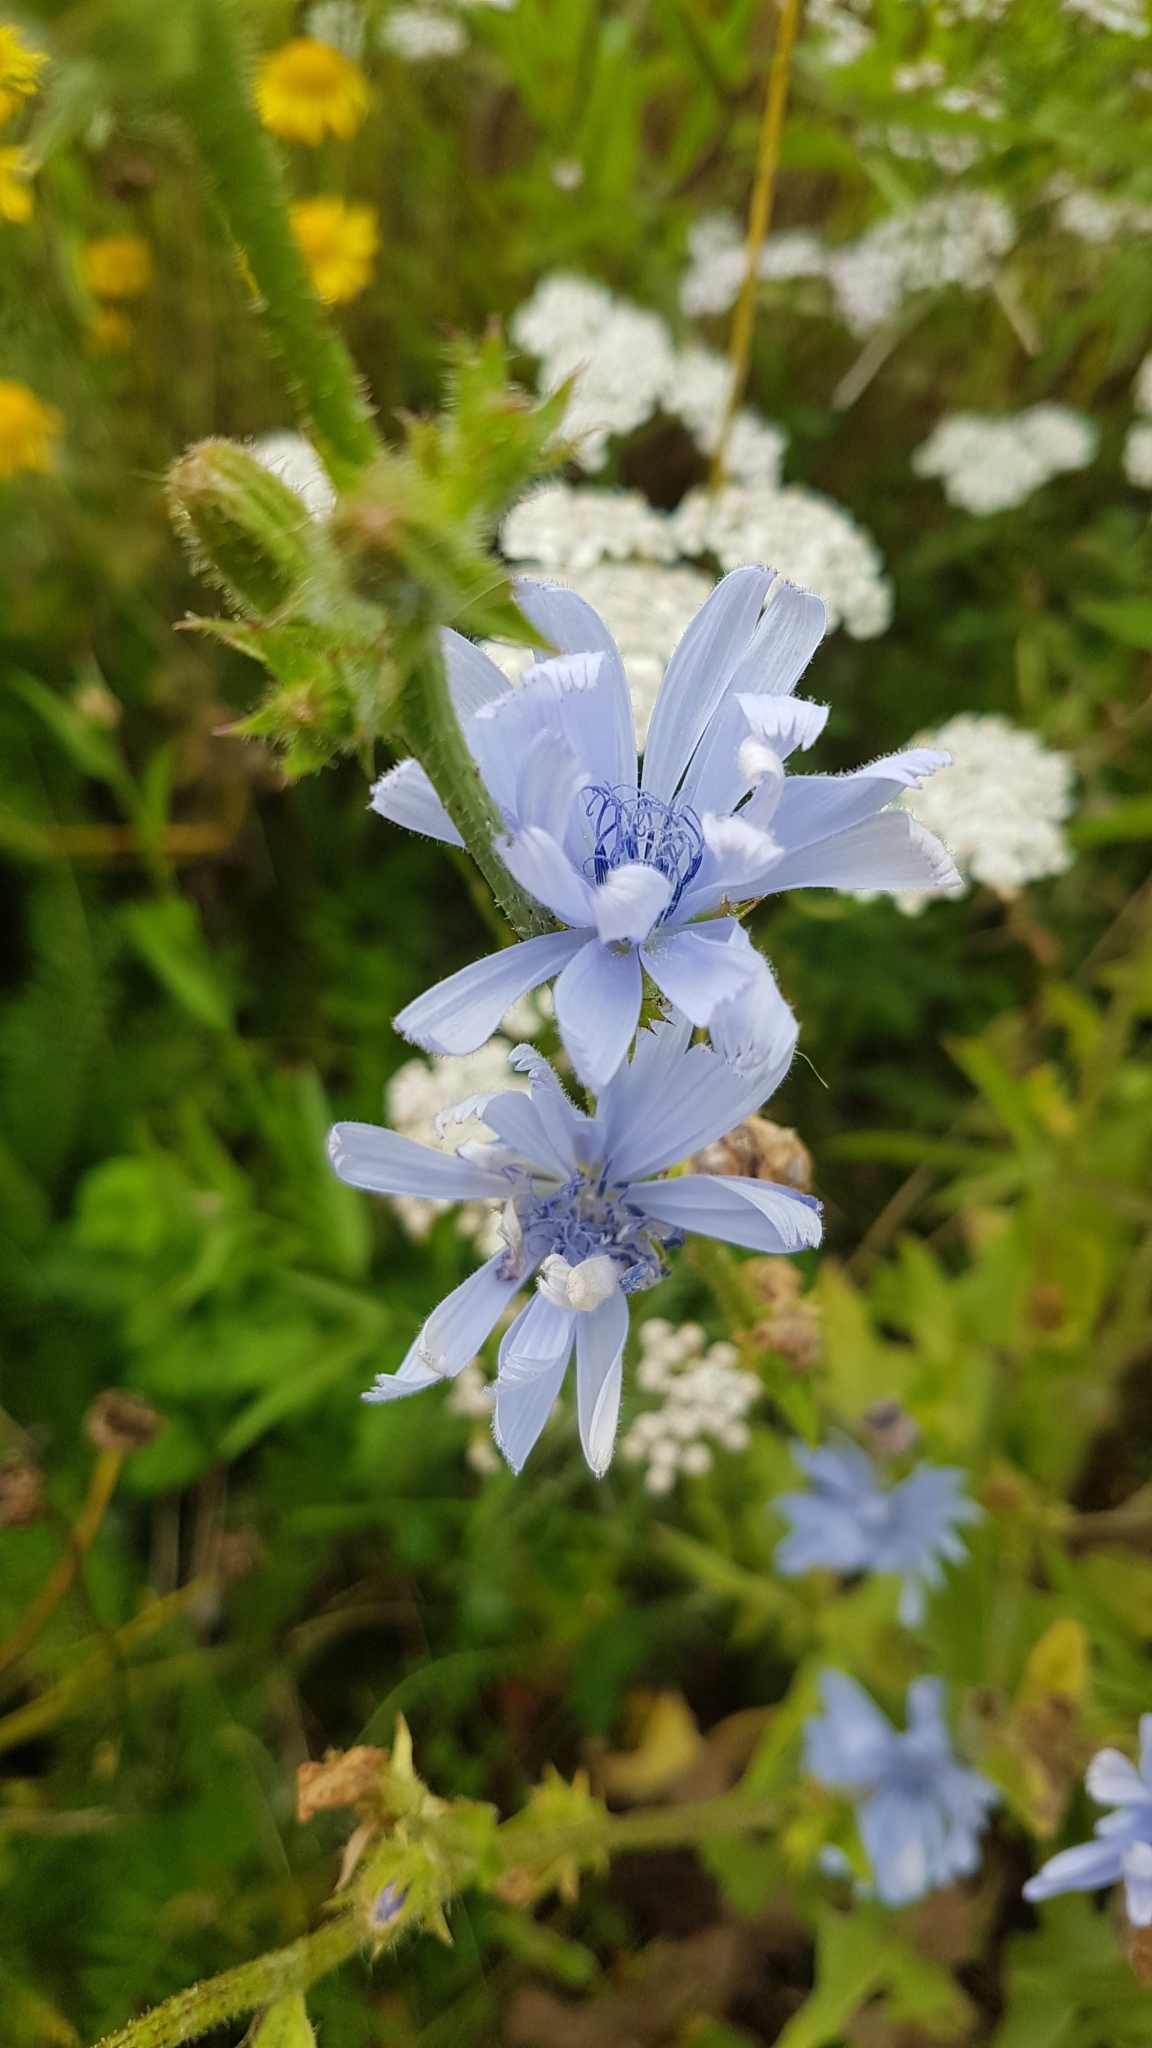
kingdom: Plantae
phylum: Tracheophyta
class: Magnoliopsida
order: Asterales
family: Asteraceae
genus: Cichorium
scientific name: Cichorium intybus
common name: Chicory
